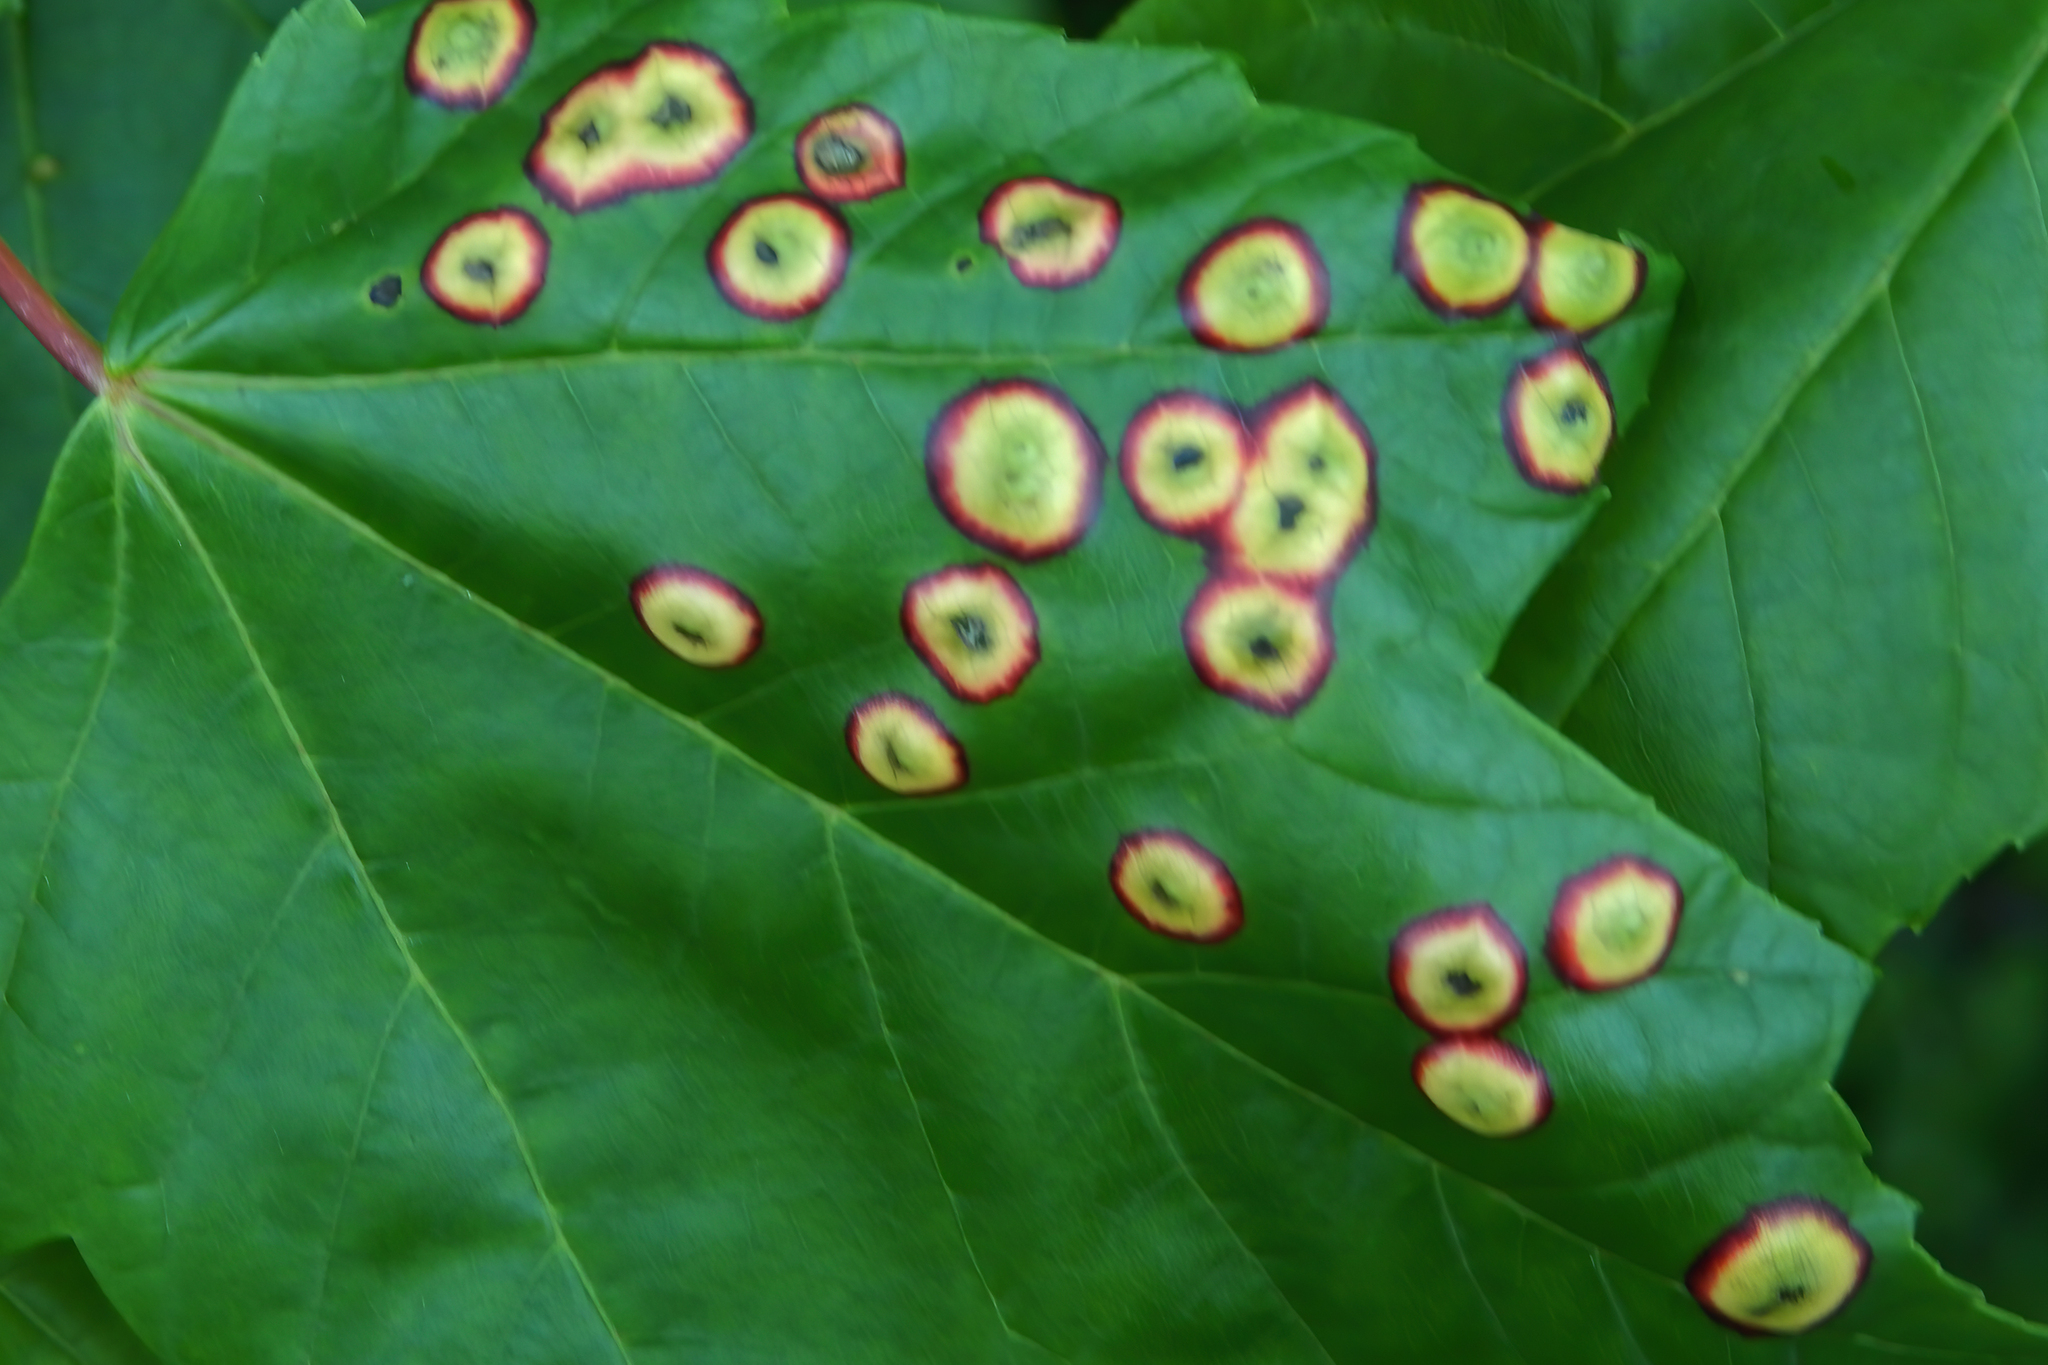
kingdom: Animalia
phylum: Arthropoda
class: Insecta
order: Diptera
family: Cecidomyiidae
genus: Acericecis
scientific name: Acericecis ocellaris
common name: Ocellate gall midge
